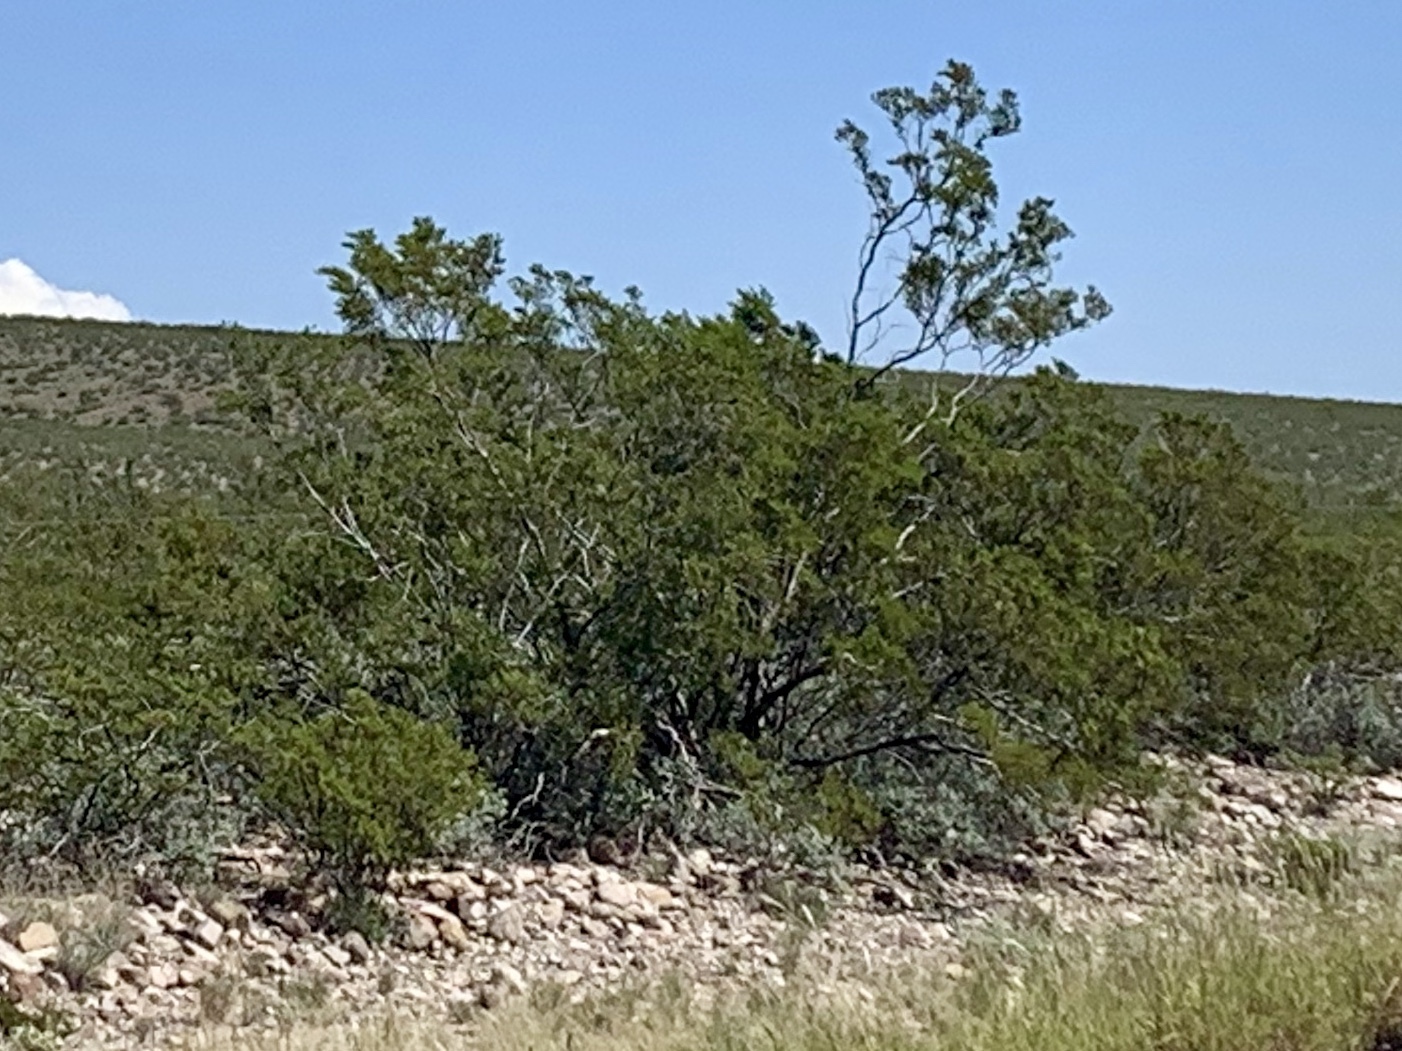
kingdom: Plantae
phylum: Tracheophyta
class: Magnoliopsida
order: Zygophyllales
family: Zygophyllaceae
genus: Larrea
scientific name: Larrea tridentata
